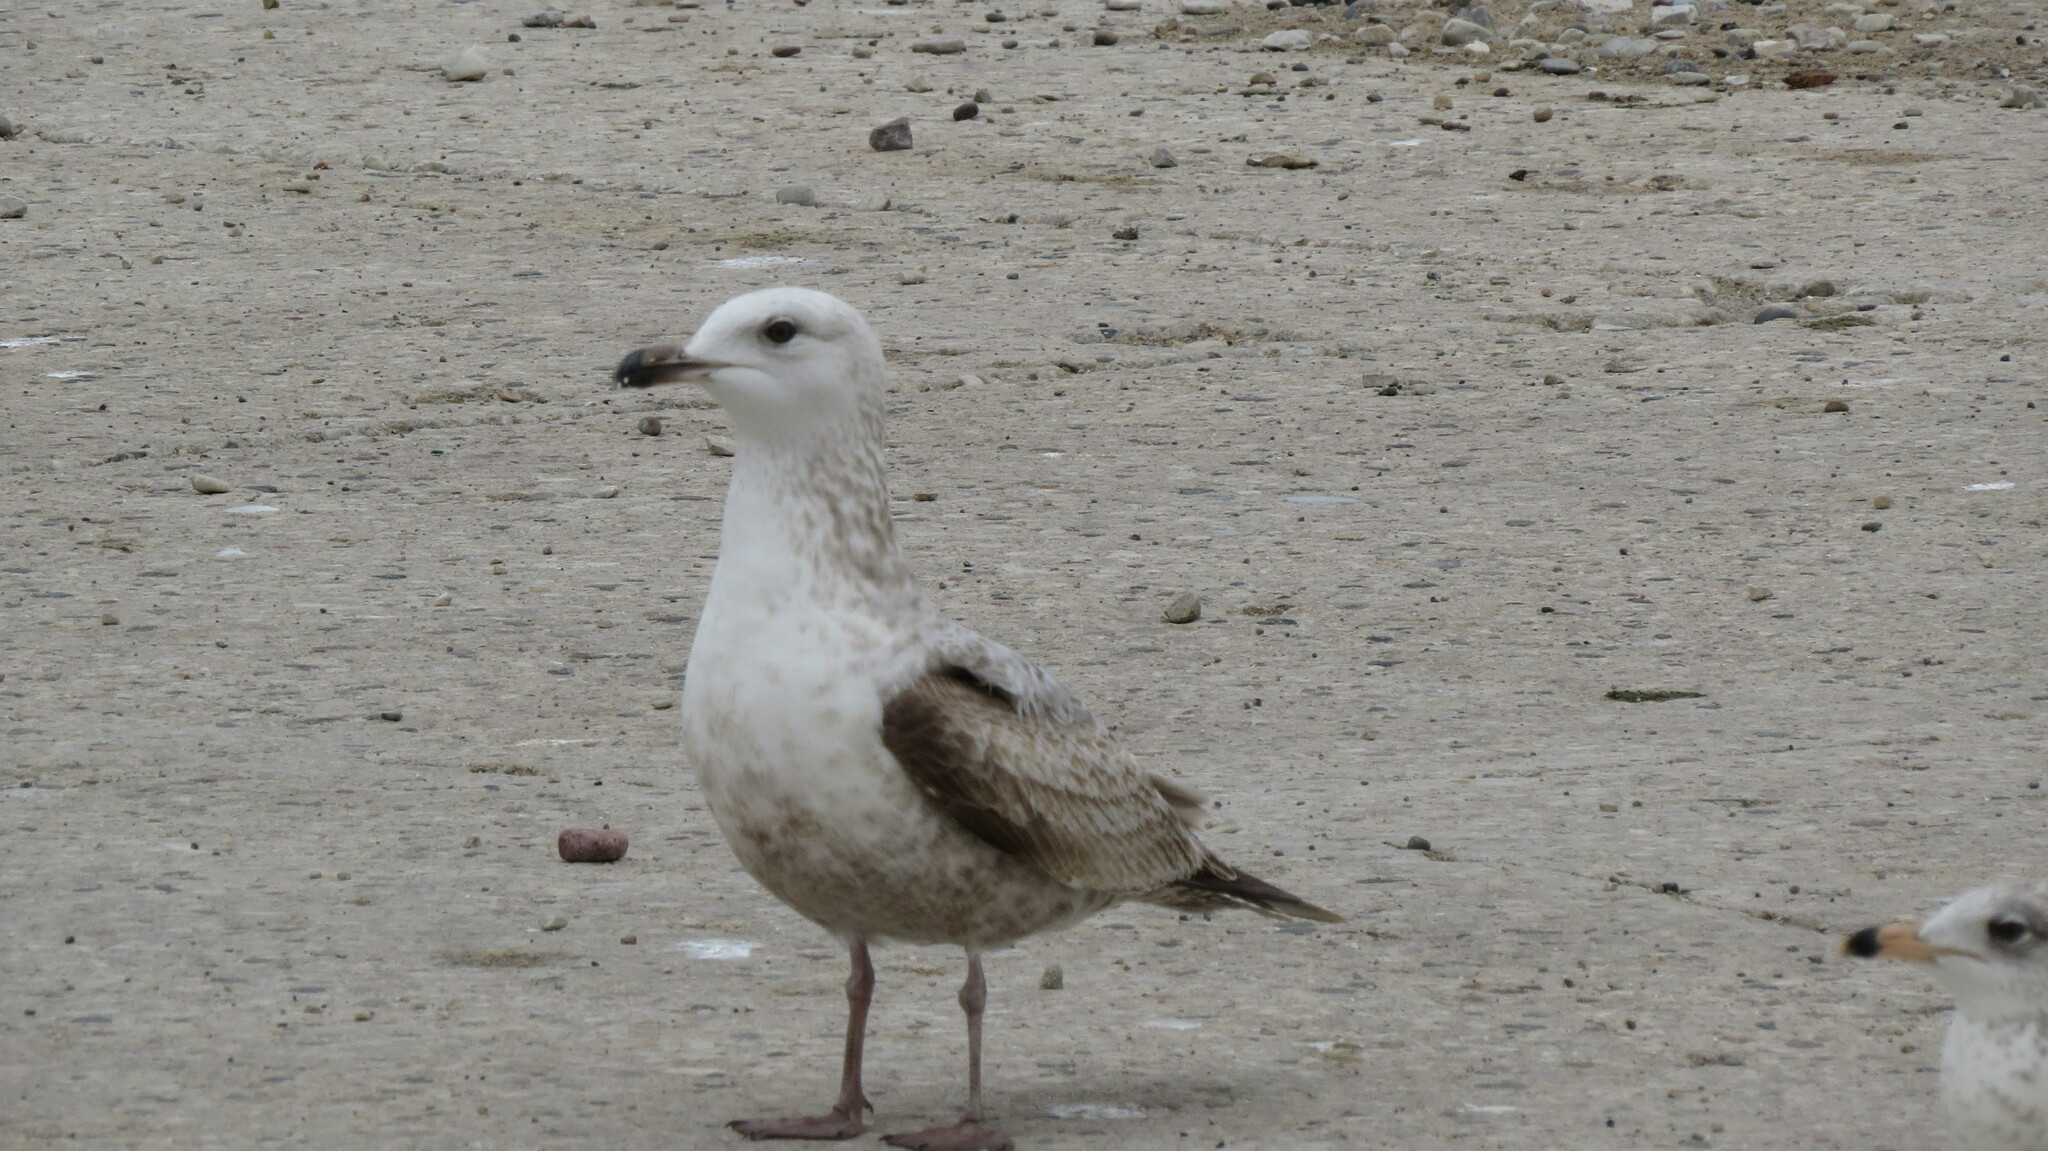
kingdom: Animalia
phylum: Chordata
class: Aves
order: Charadriiformes
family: Laridae
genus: Larus
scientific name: Larus smithsonianus
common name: American herring gull
